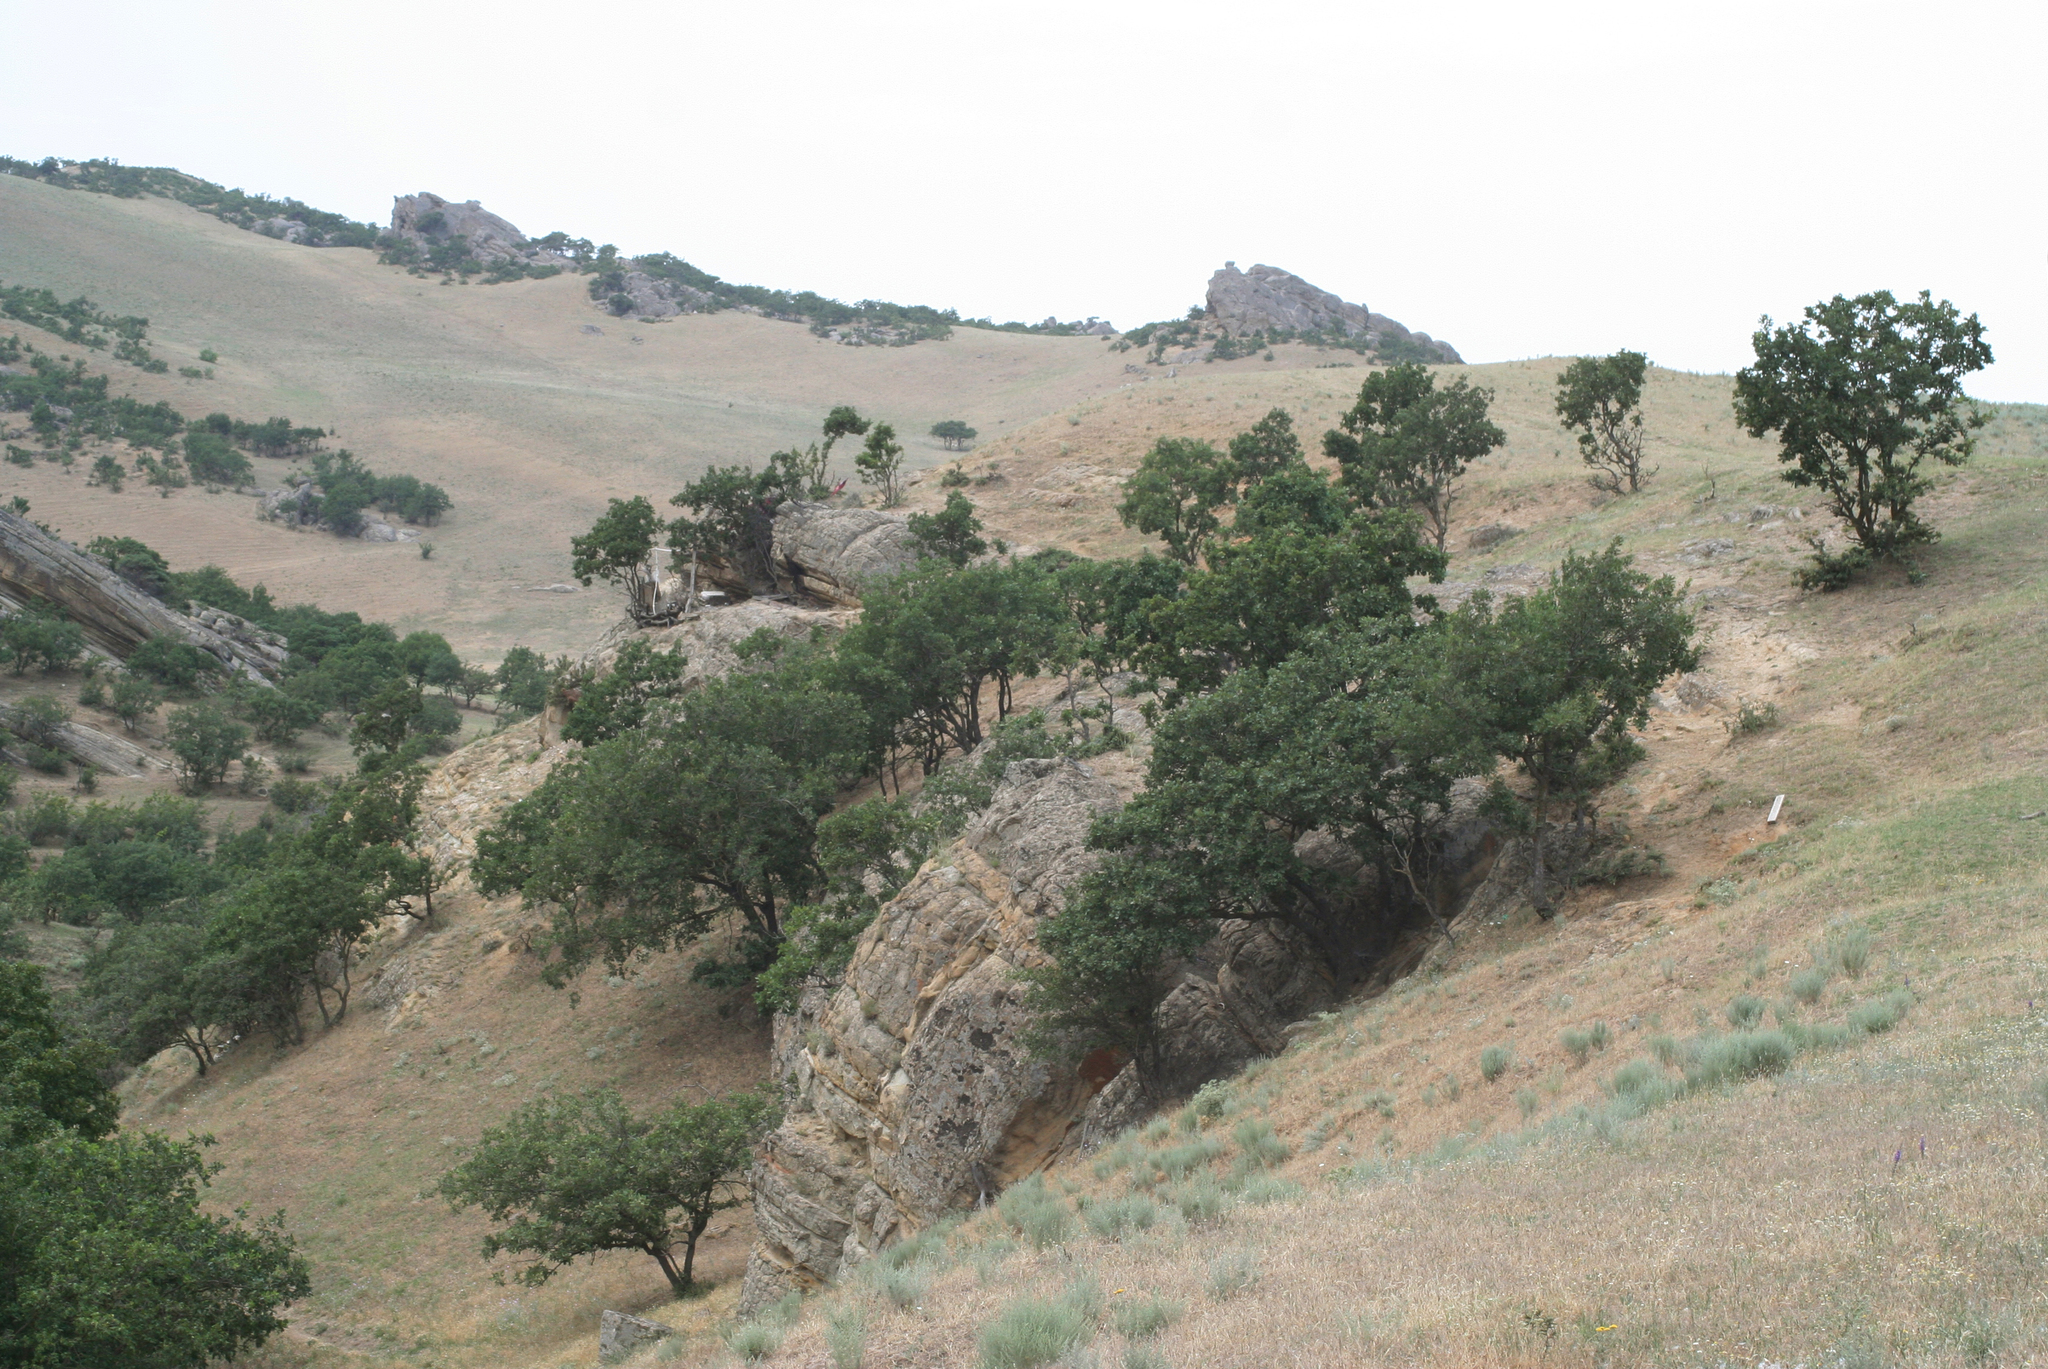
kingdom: Plantae
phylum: Tracheophyta
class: Magnoliopsida
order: Fagales
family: Fagaceae
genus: Quercus
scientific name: Quercus petraea
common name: Sessile oak
